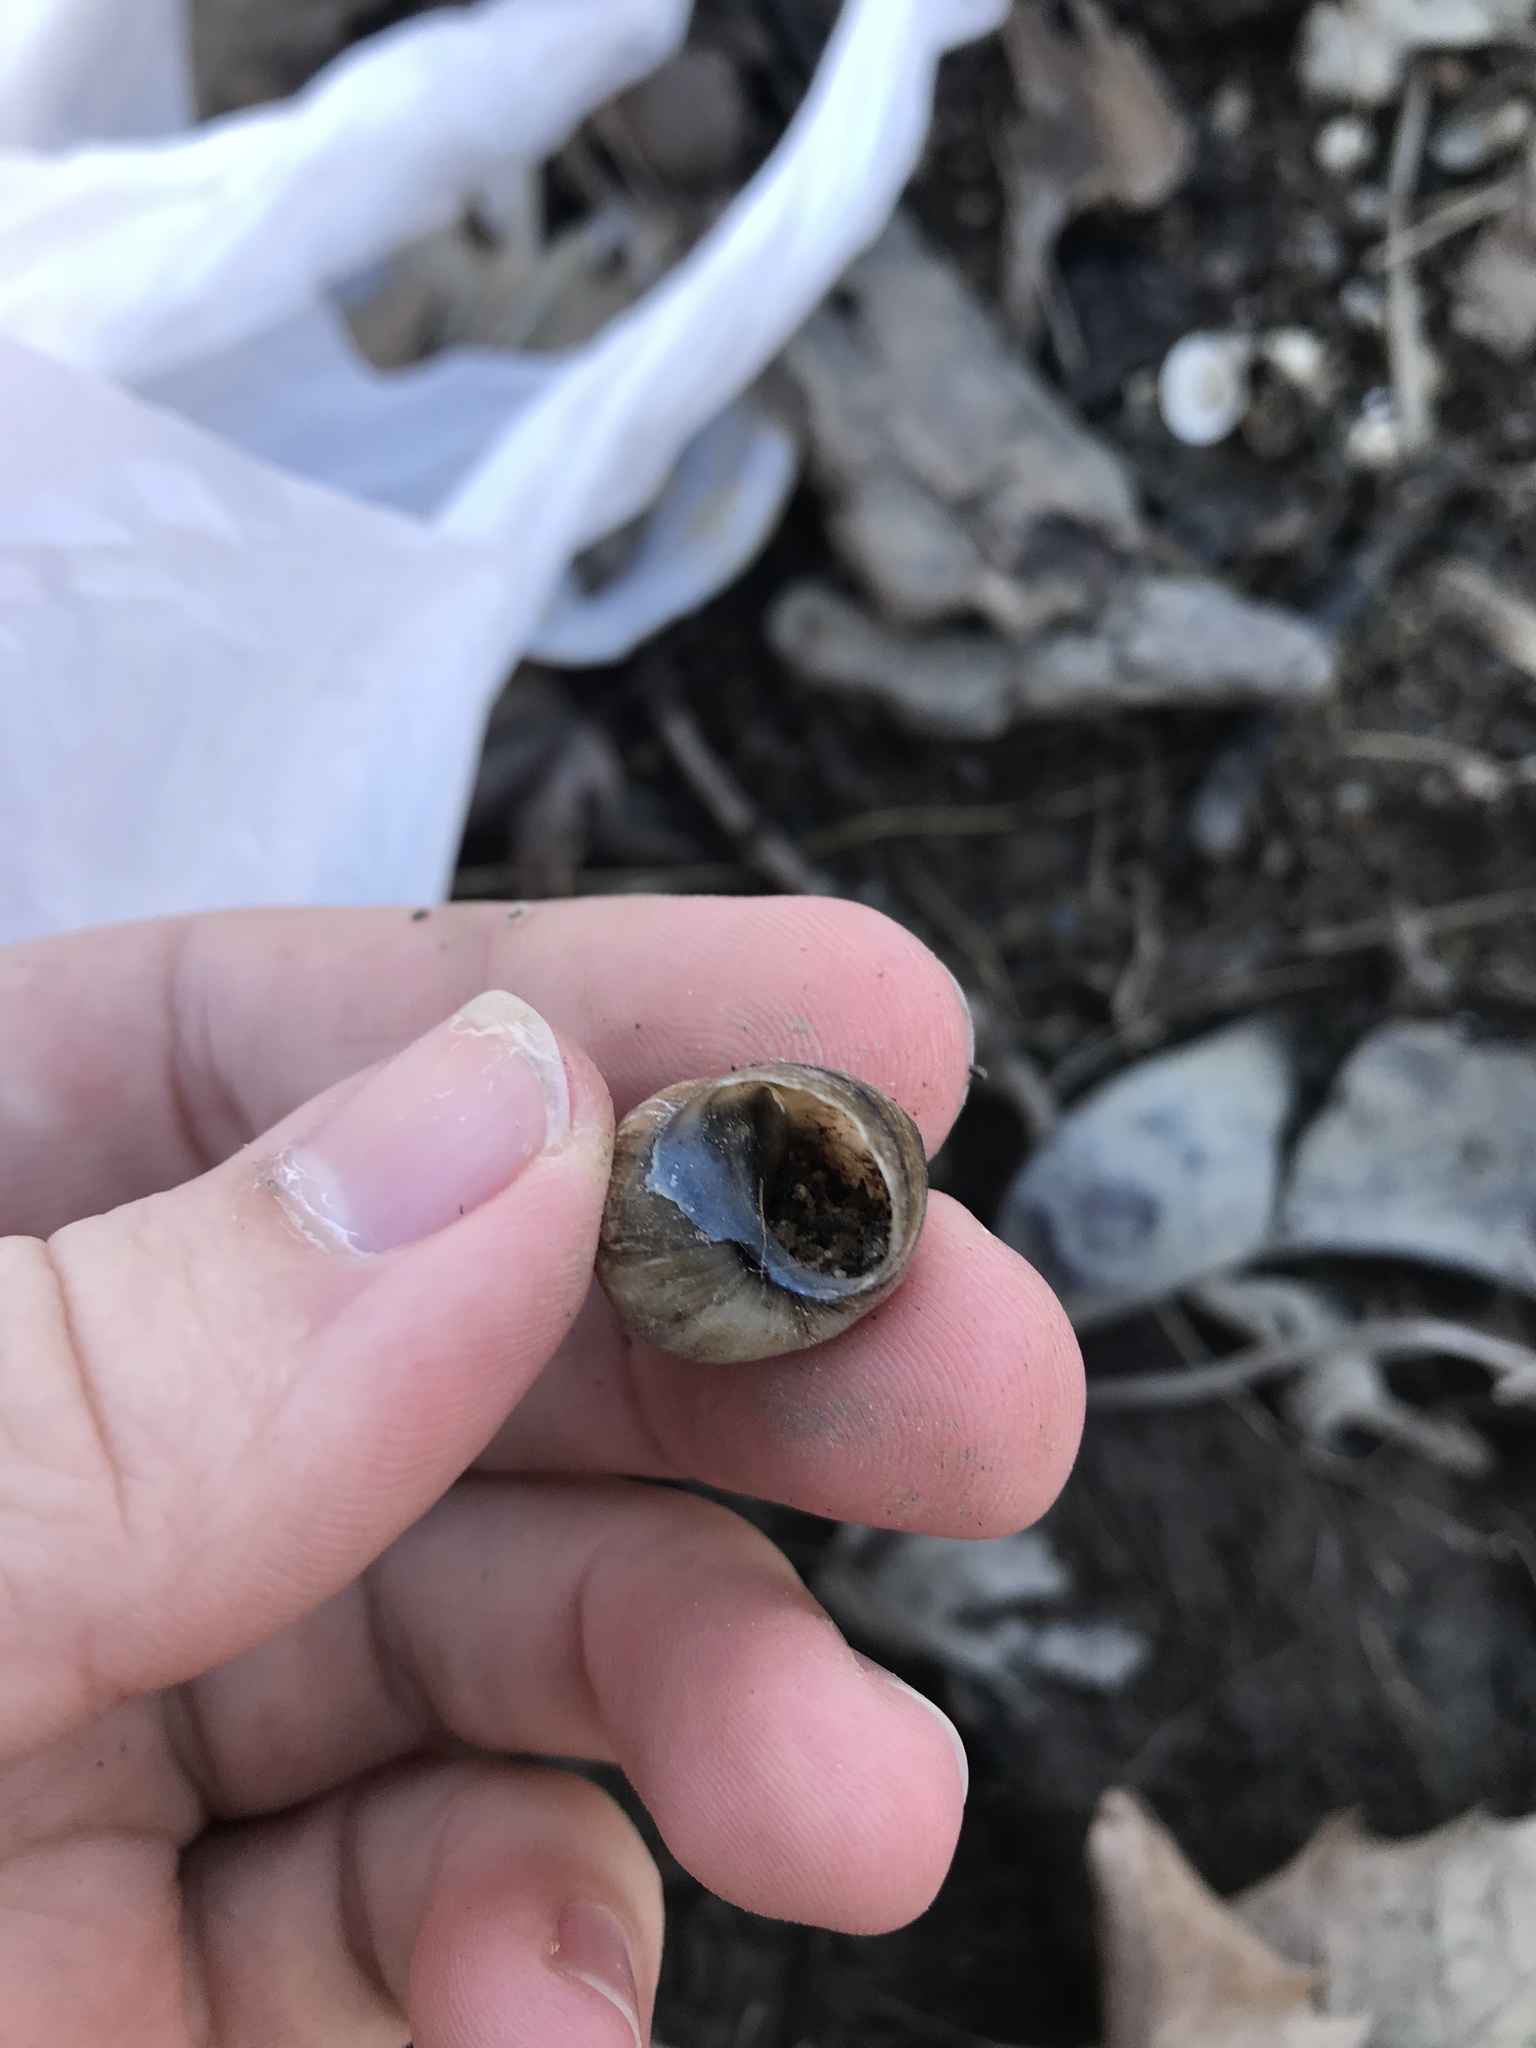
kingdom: Animalia
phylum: Mollusca
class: Gastropoda
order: Architaenioglossa
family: Viviparidae
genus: Cipangopaludina
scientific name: Cipangopaludina chinensis
